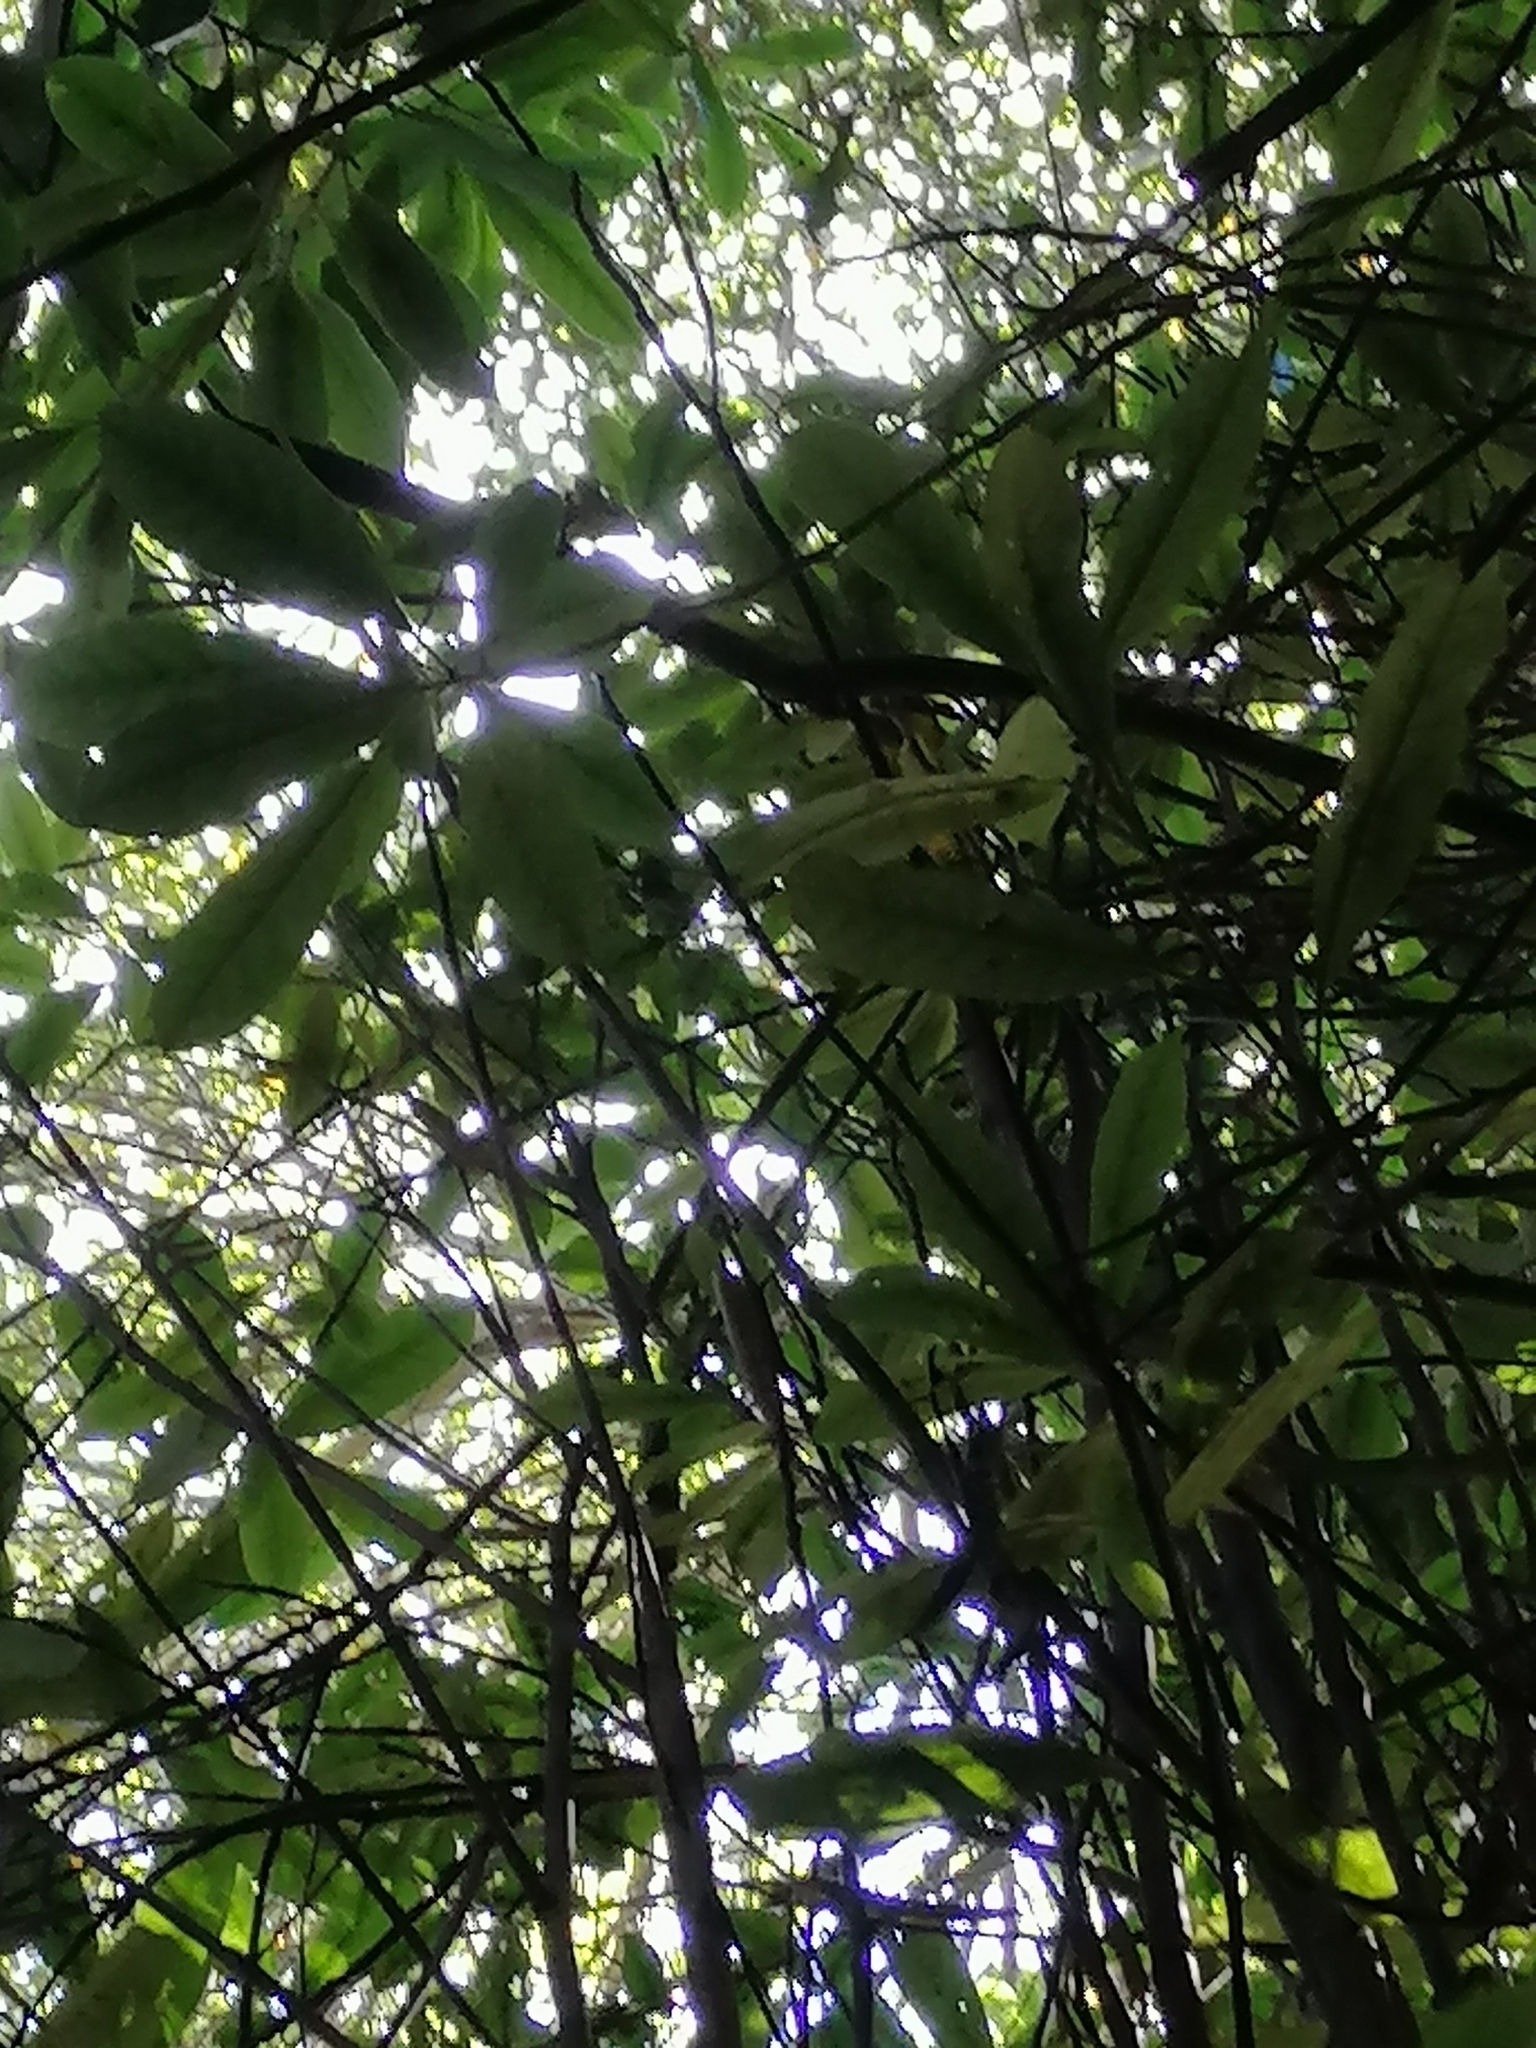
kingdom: Plantae
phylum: Tracheophyta
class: Magnoliopsida
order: Oxalidales
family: Elaeocarpaceae
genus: Elaeocarpus
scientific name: Elaeocarpus dentatus
